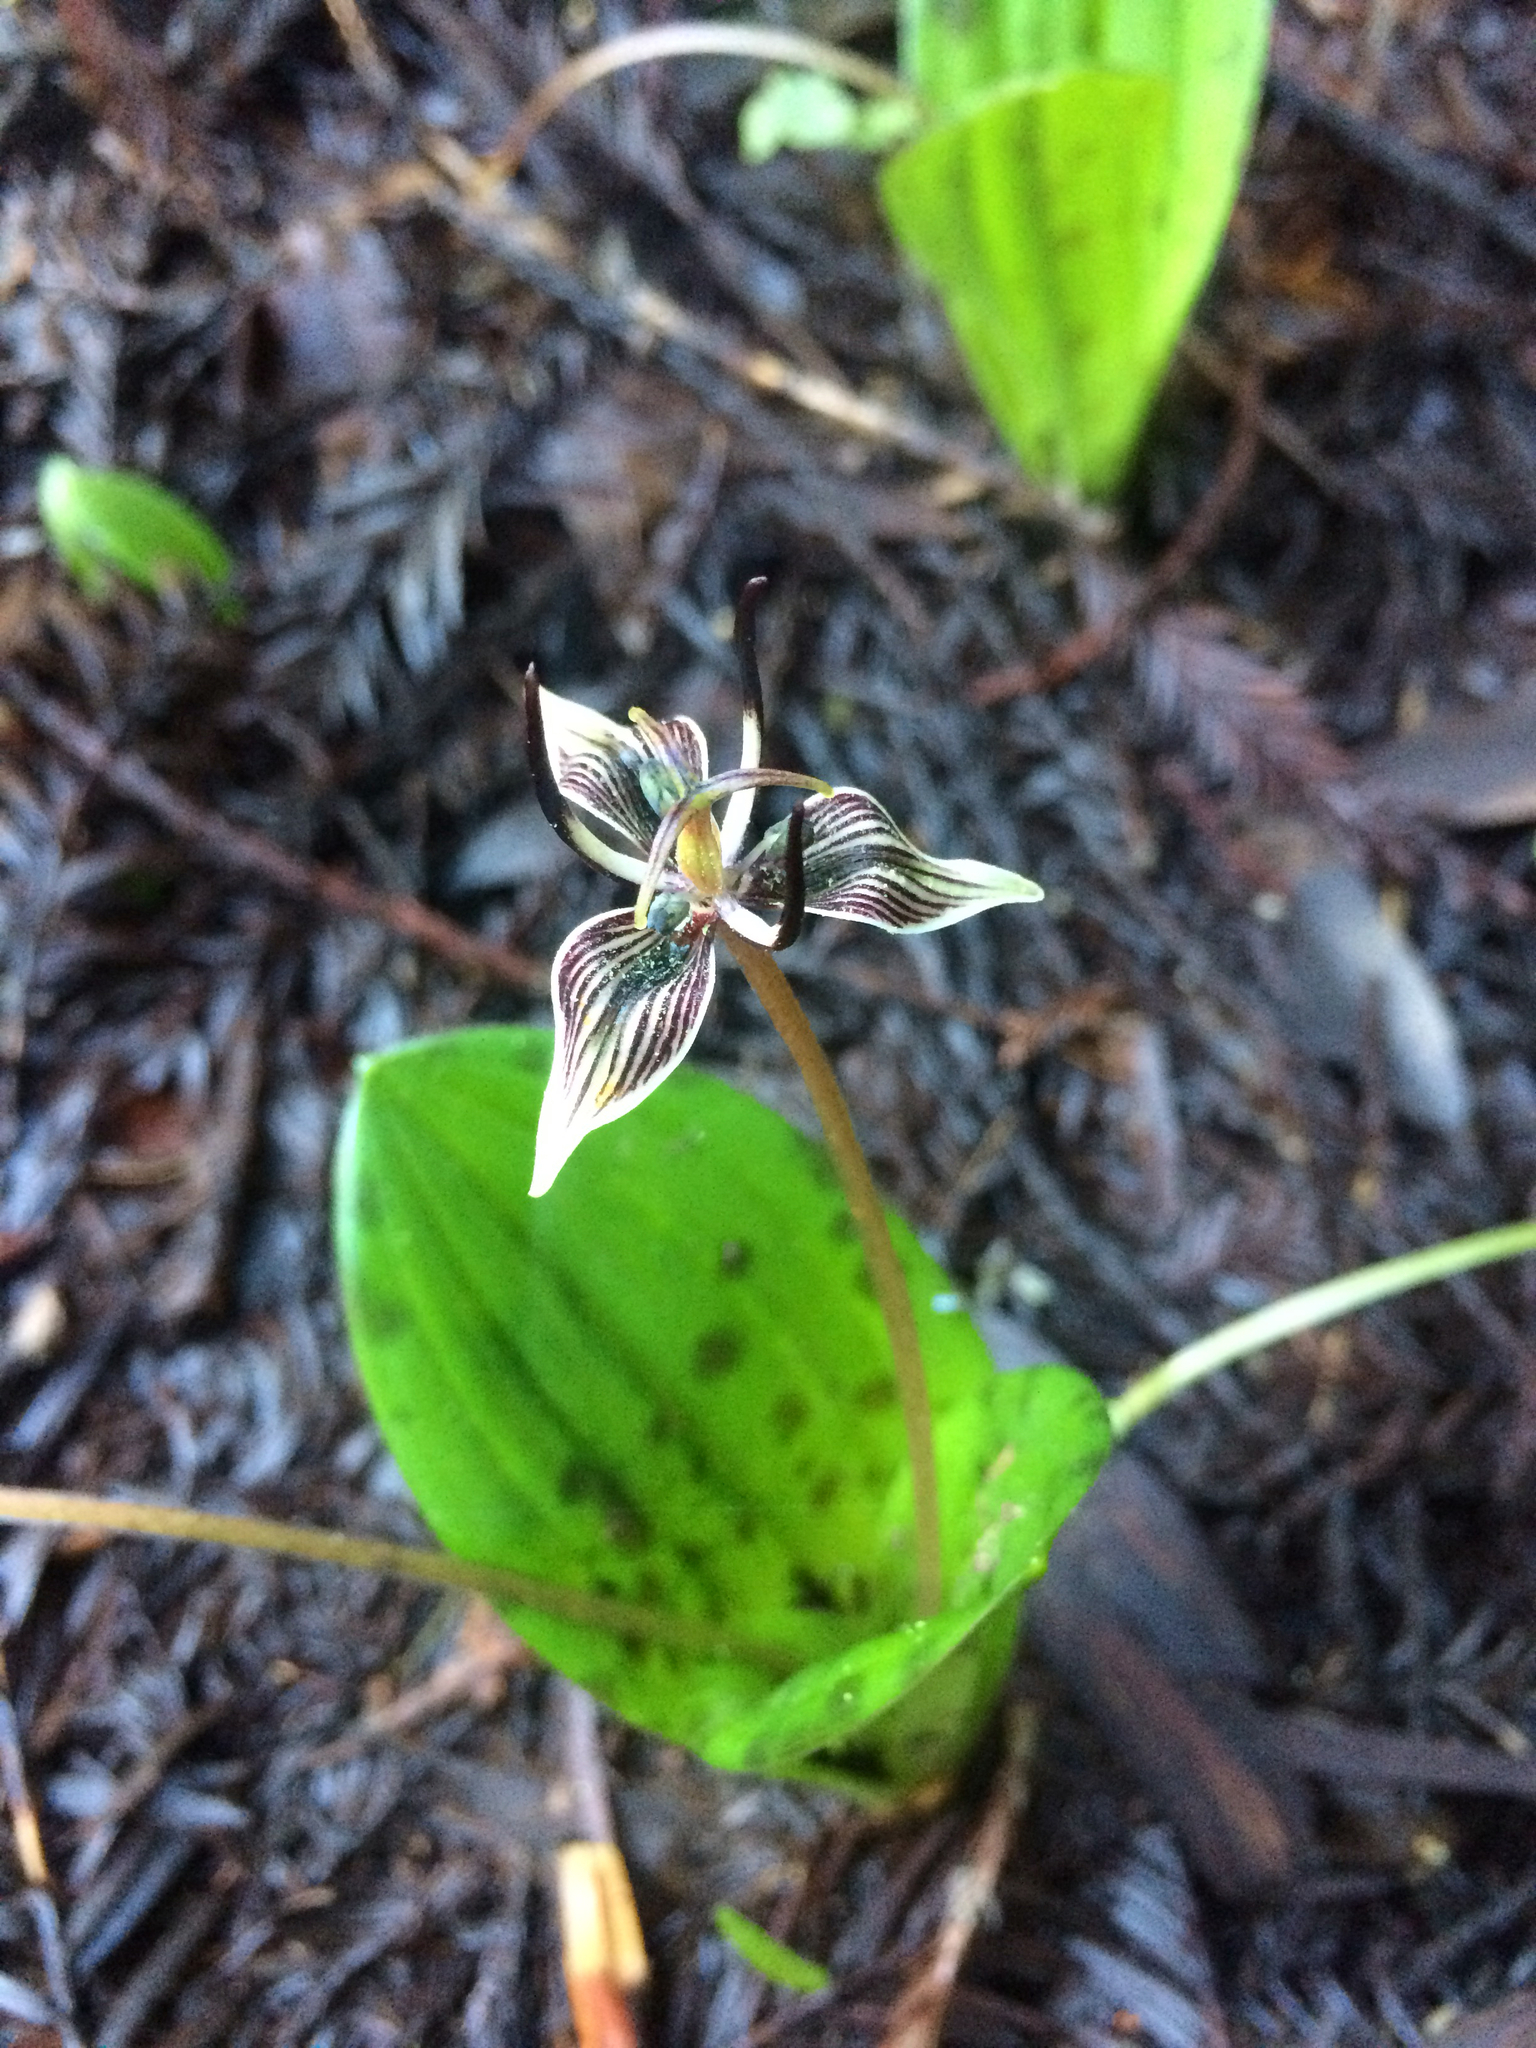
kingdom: Plantae
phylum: Tracheophyta
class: Liliopsida
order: Liliales
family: Liliaceae
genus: Scoliopus
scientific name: Scoliopus bigelovii
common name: Foetid adder's-tongue
